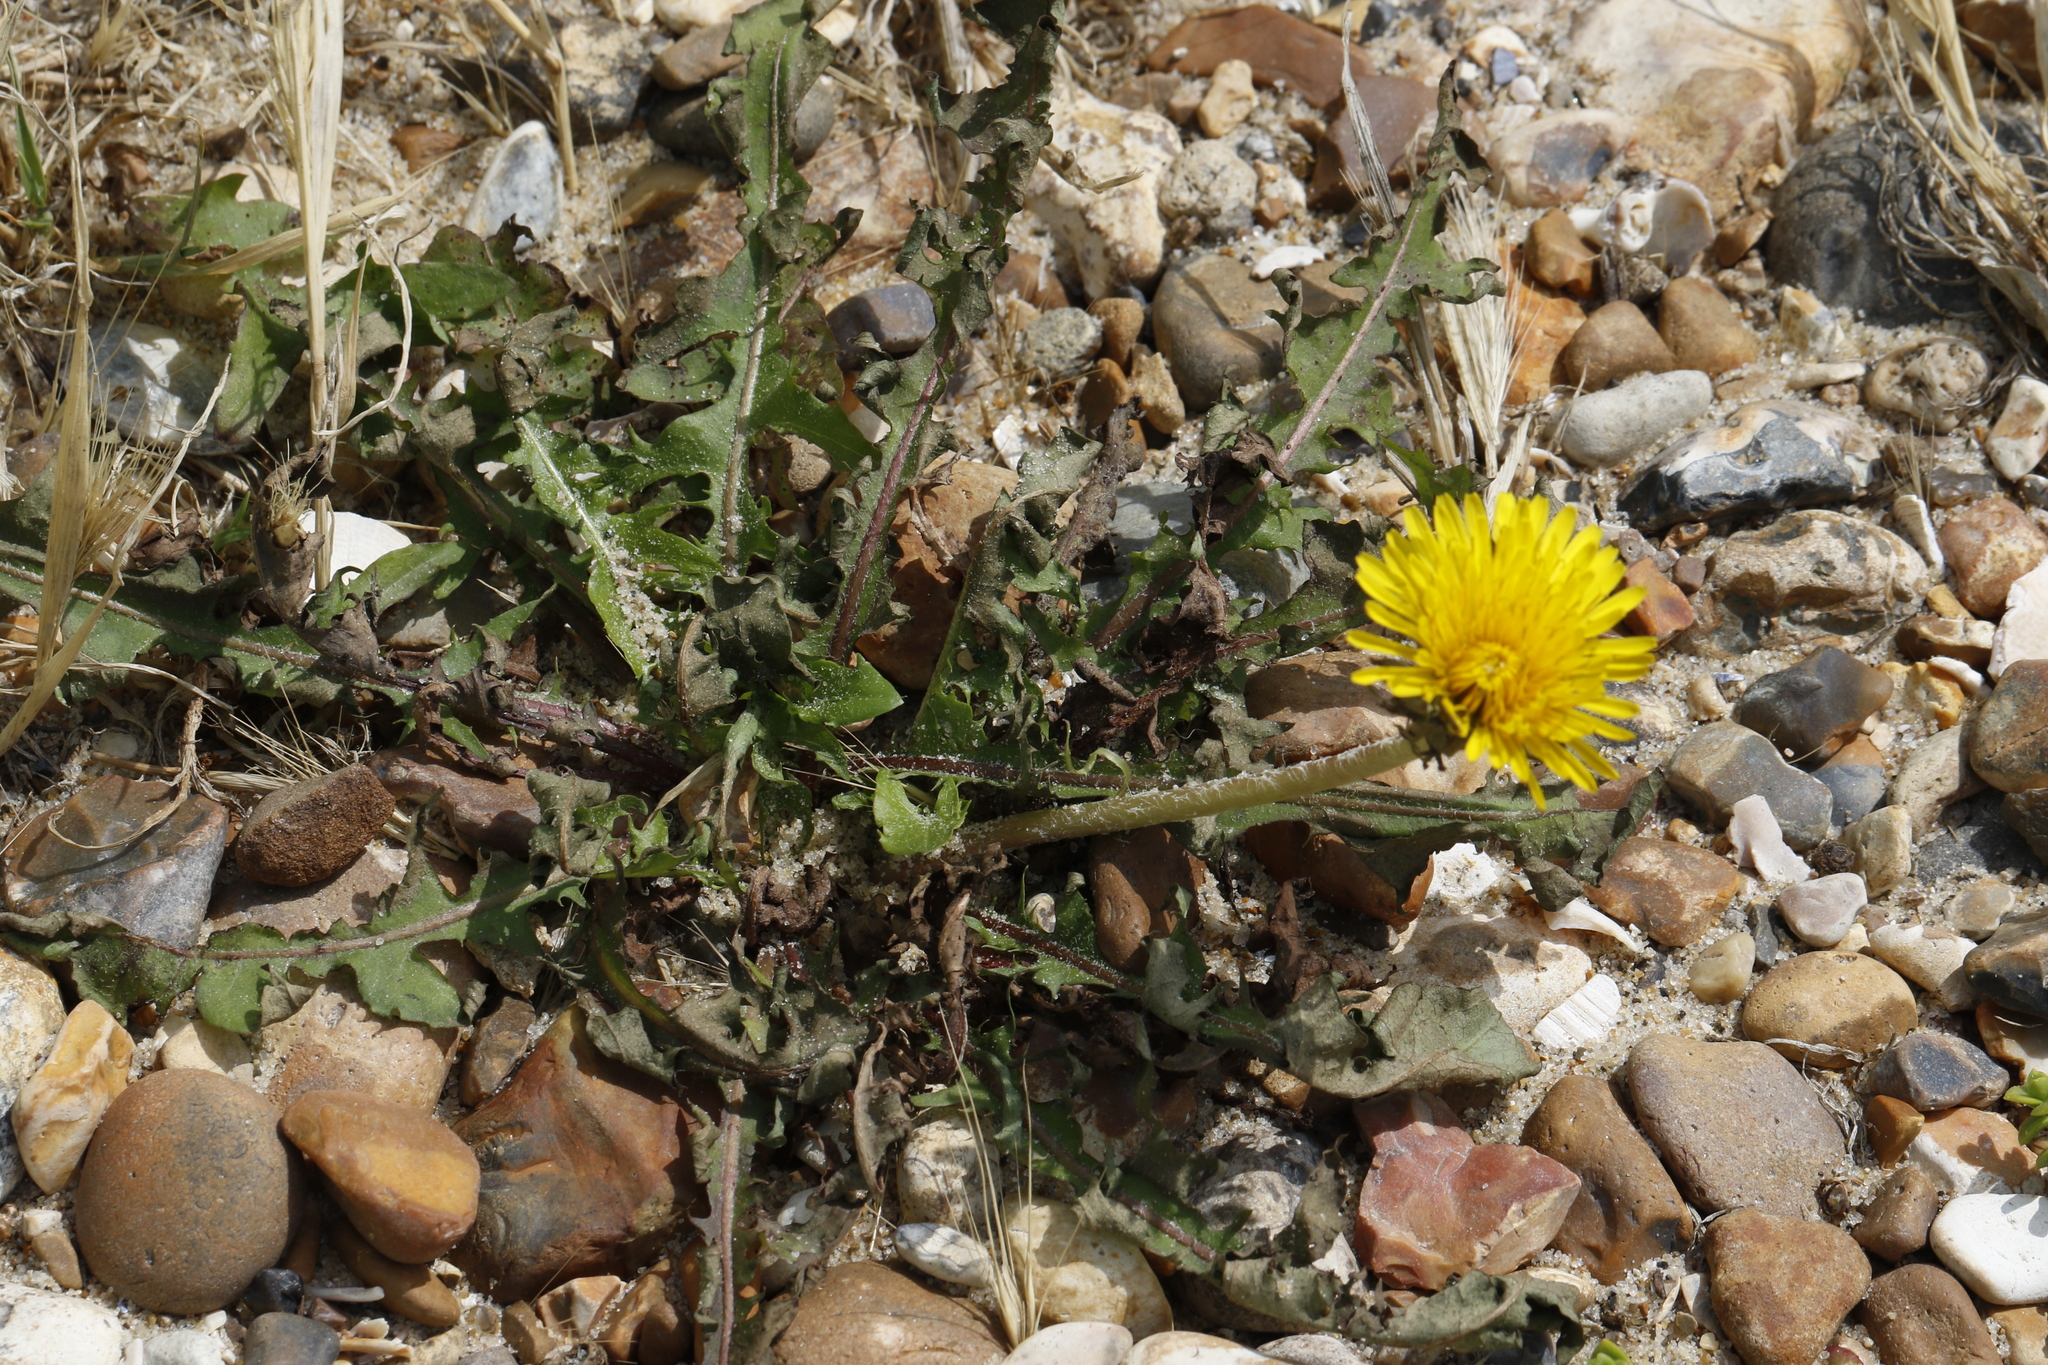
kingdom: Plantae
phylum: Tracheophyta
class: Magnoliopsida
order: Asterales
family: Asteraceae
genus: Taraxacum
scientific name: Taraxacum officinale
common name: Common dandelion
